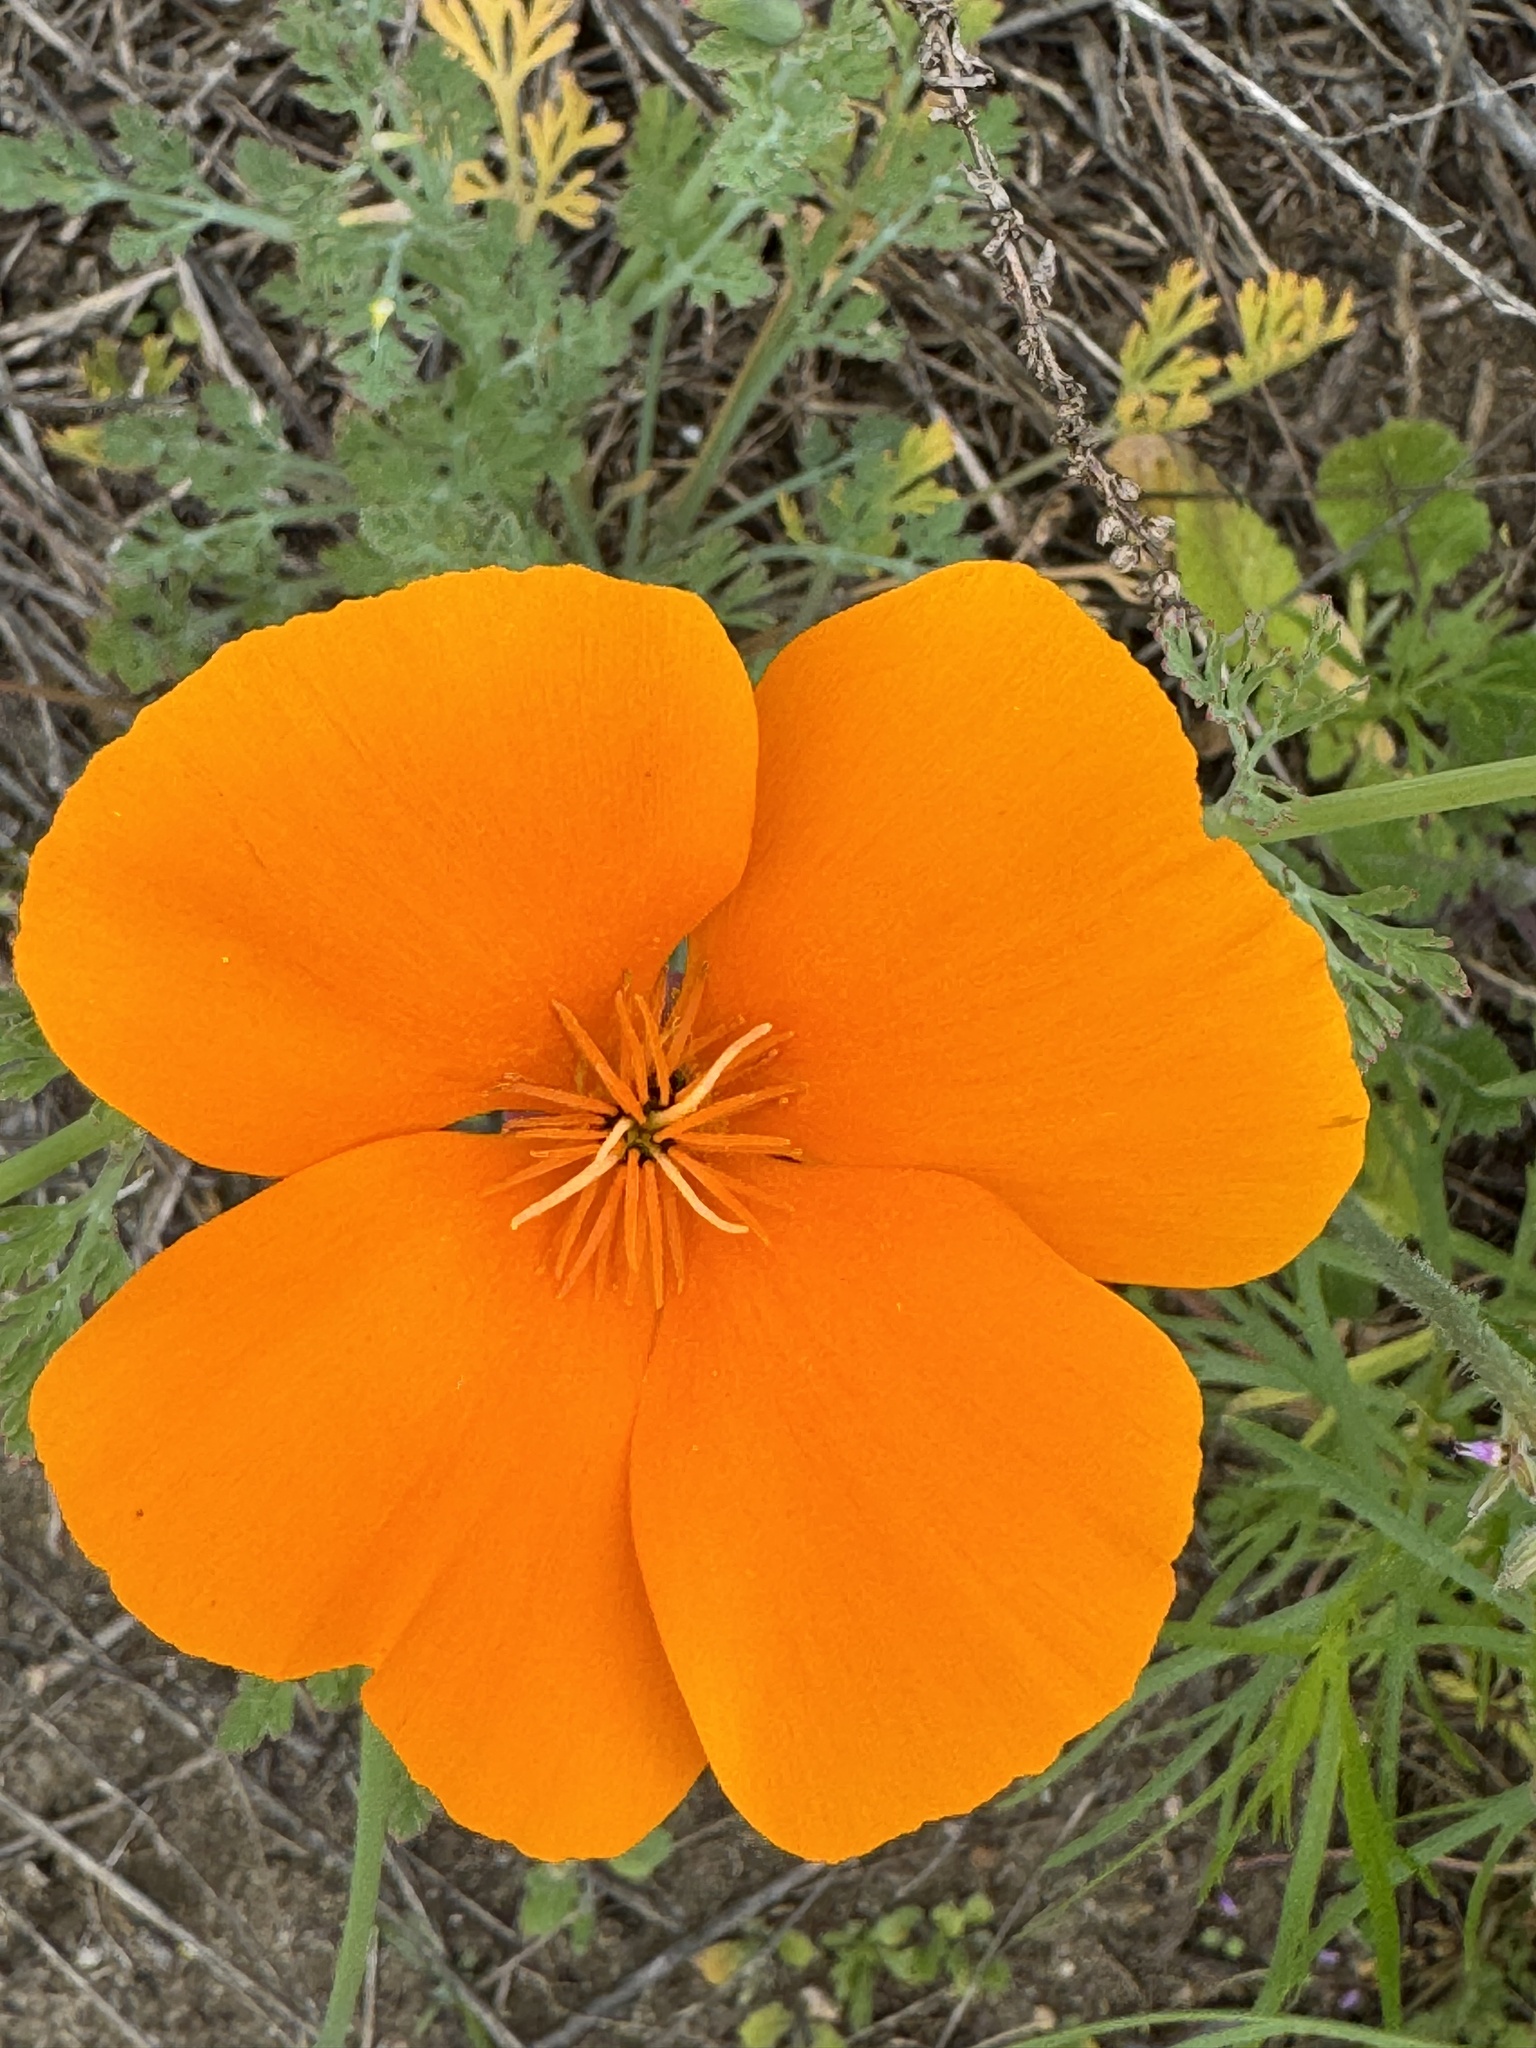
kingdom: Plantae
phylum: Tracheophyta
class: Magnoliopsida
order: Ranunculales
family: Papaveraceae
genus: Eschscholzia
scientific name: Eschscholzia californica
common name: California poppy
